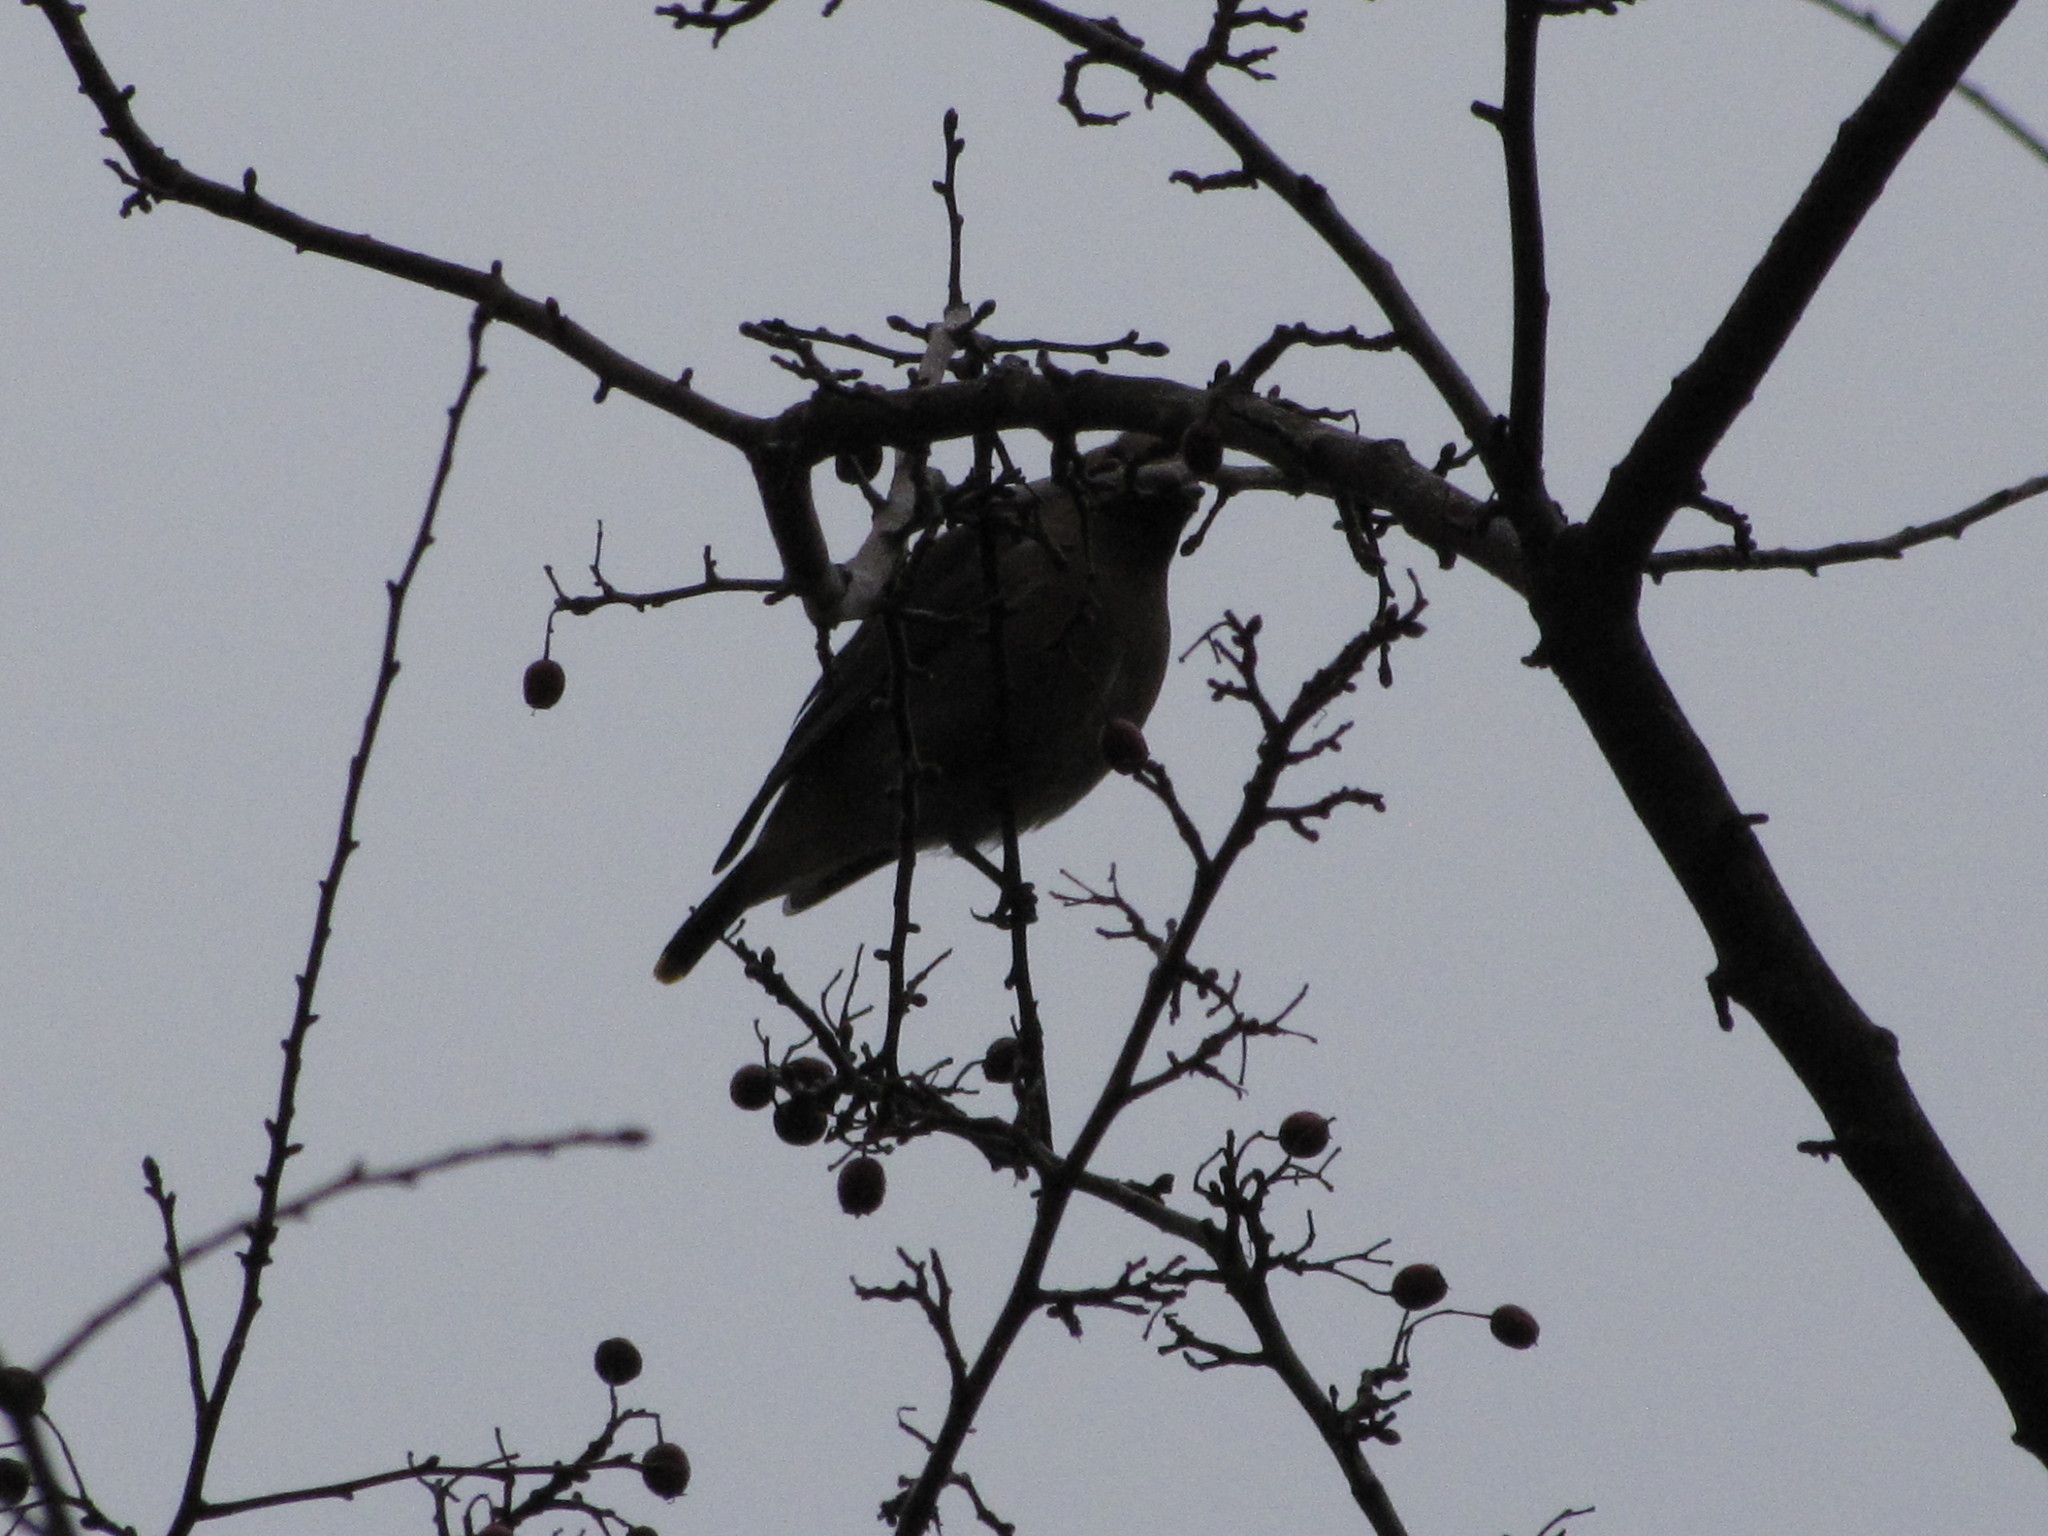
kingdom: Animalia
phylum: Chordata
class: Aves
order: Passeriformes
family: Bombycillidae
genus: Bombycilla
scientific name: Bombycilla cedrorum
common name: Cedar waxwing
